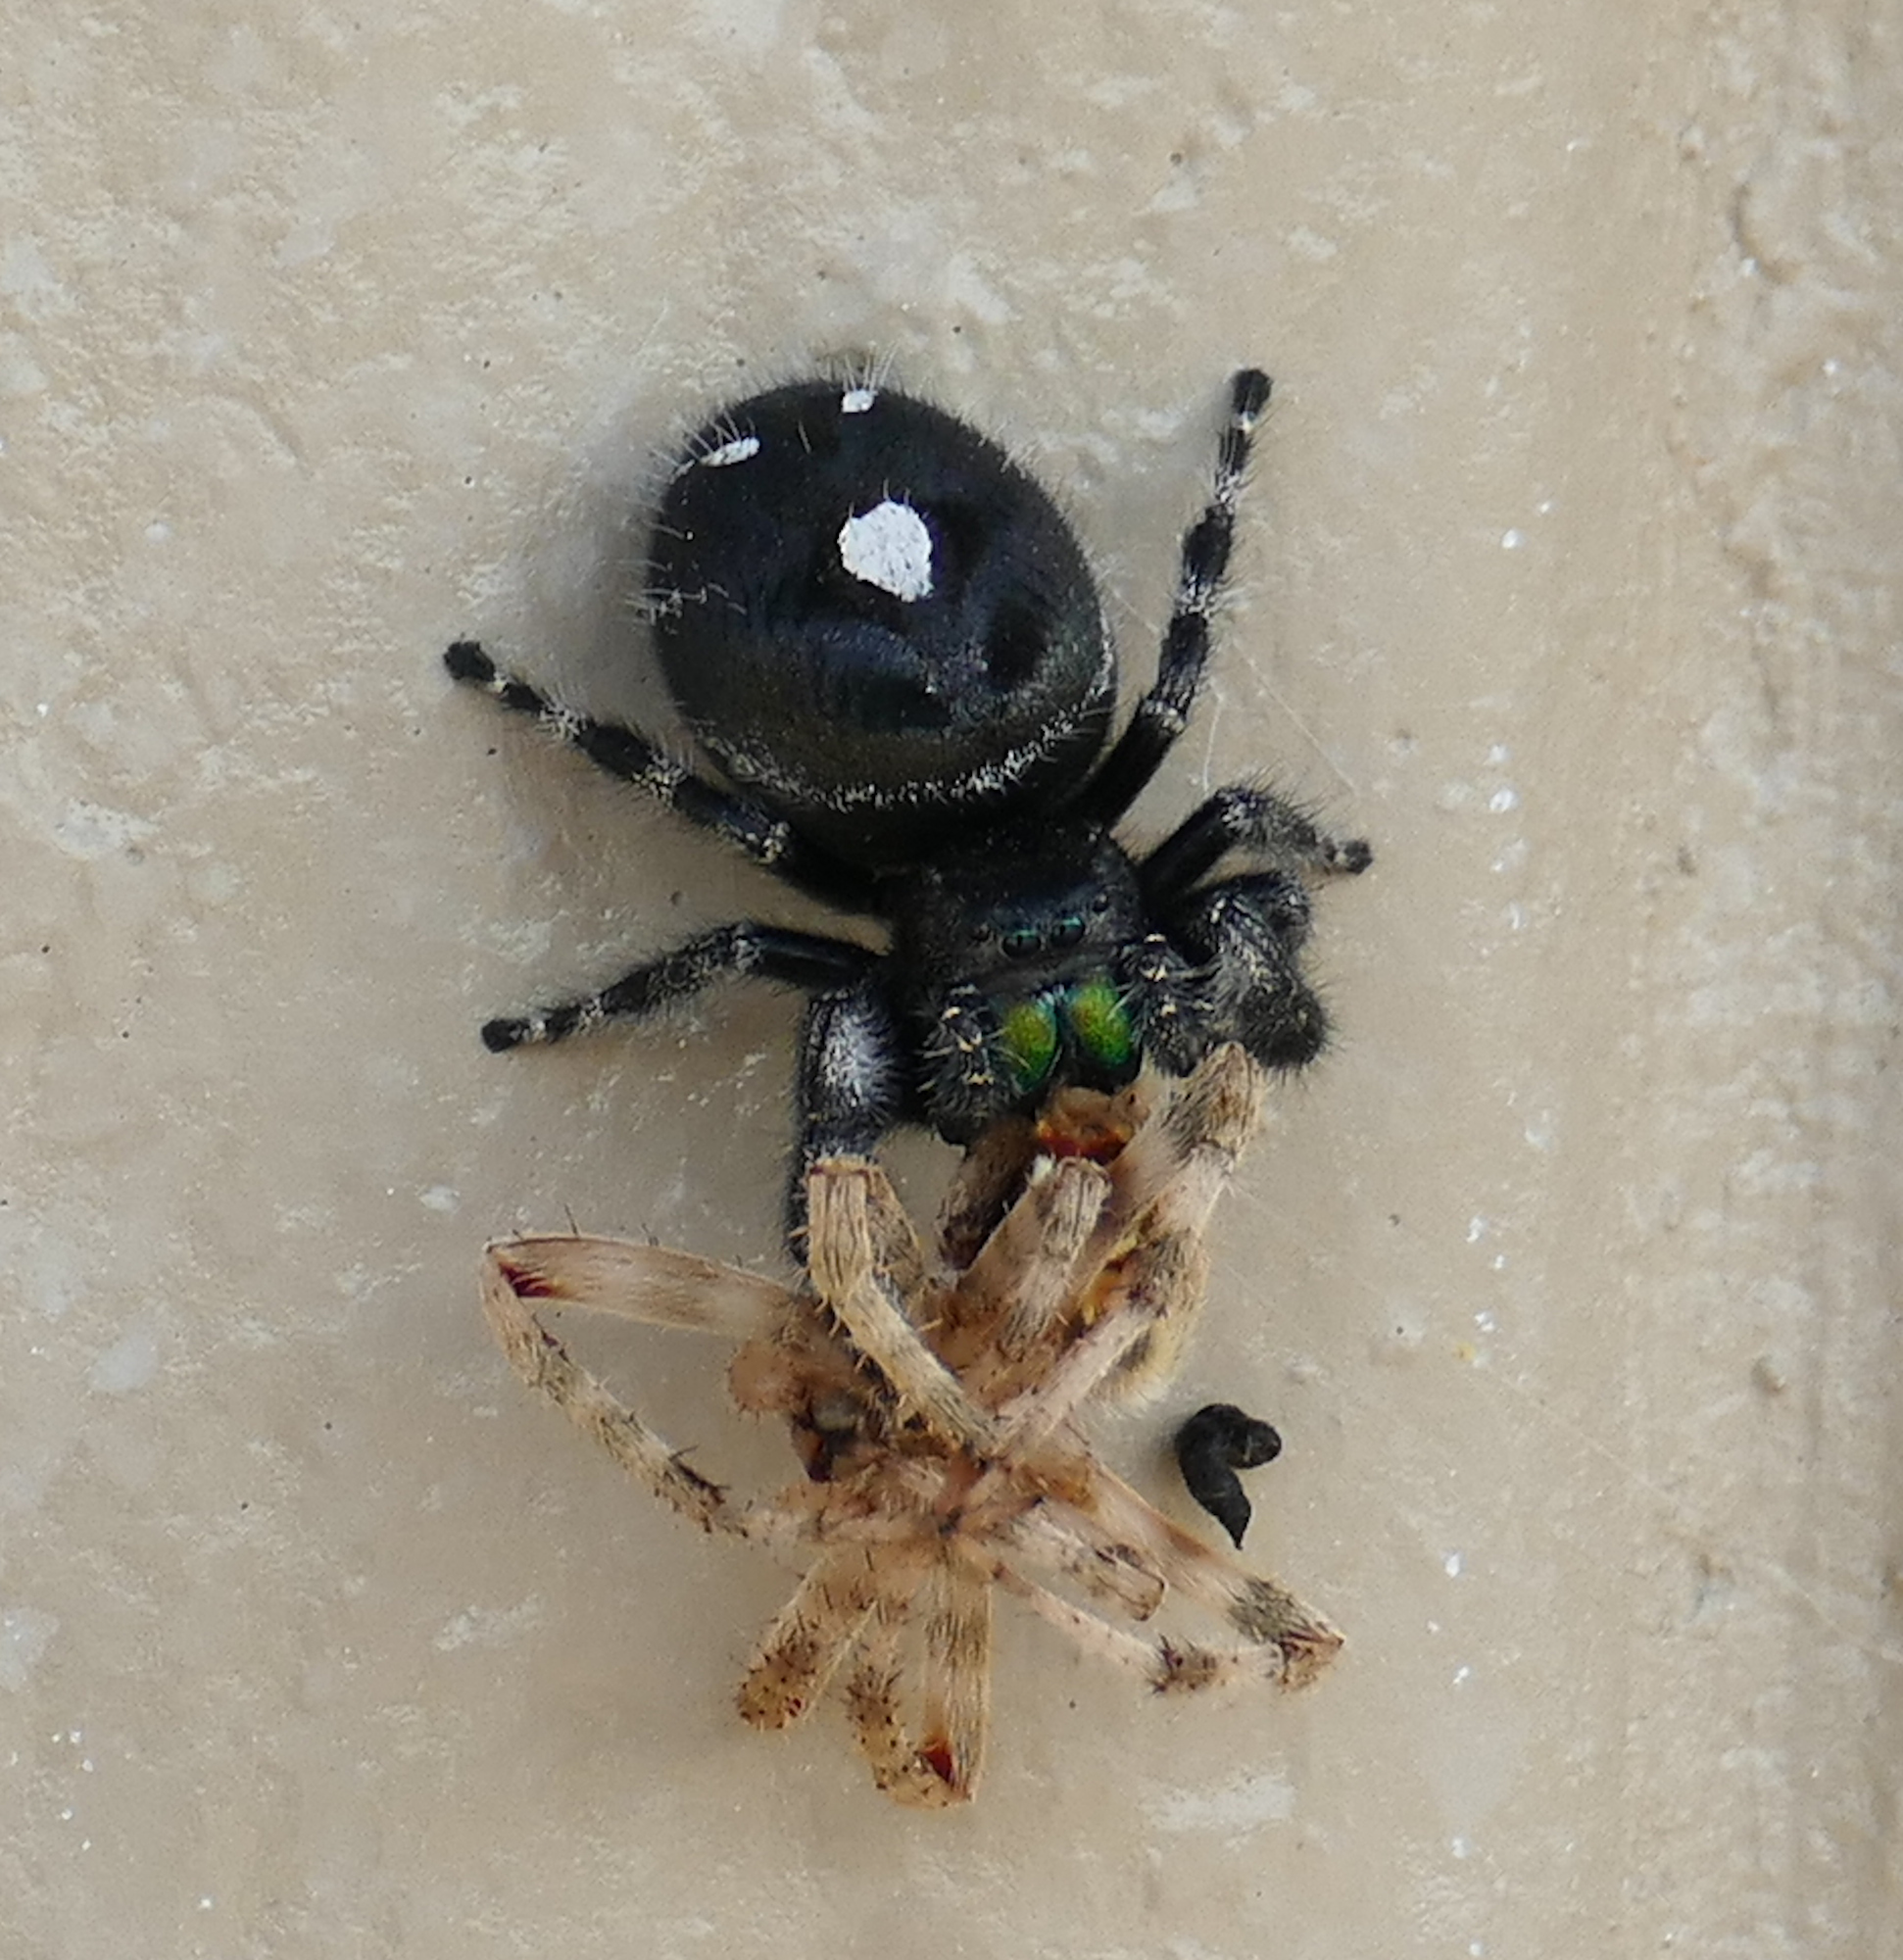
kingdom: Animalia
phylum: Arthropoda
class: Arachnida
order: Araneae
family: Salticidae
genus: Phidippus
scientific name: Phidippus audax
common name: Bold jumper
